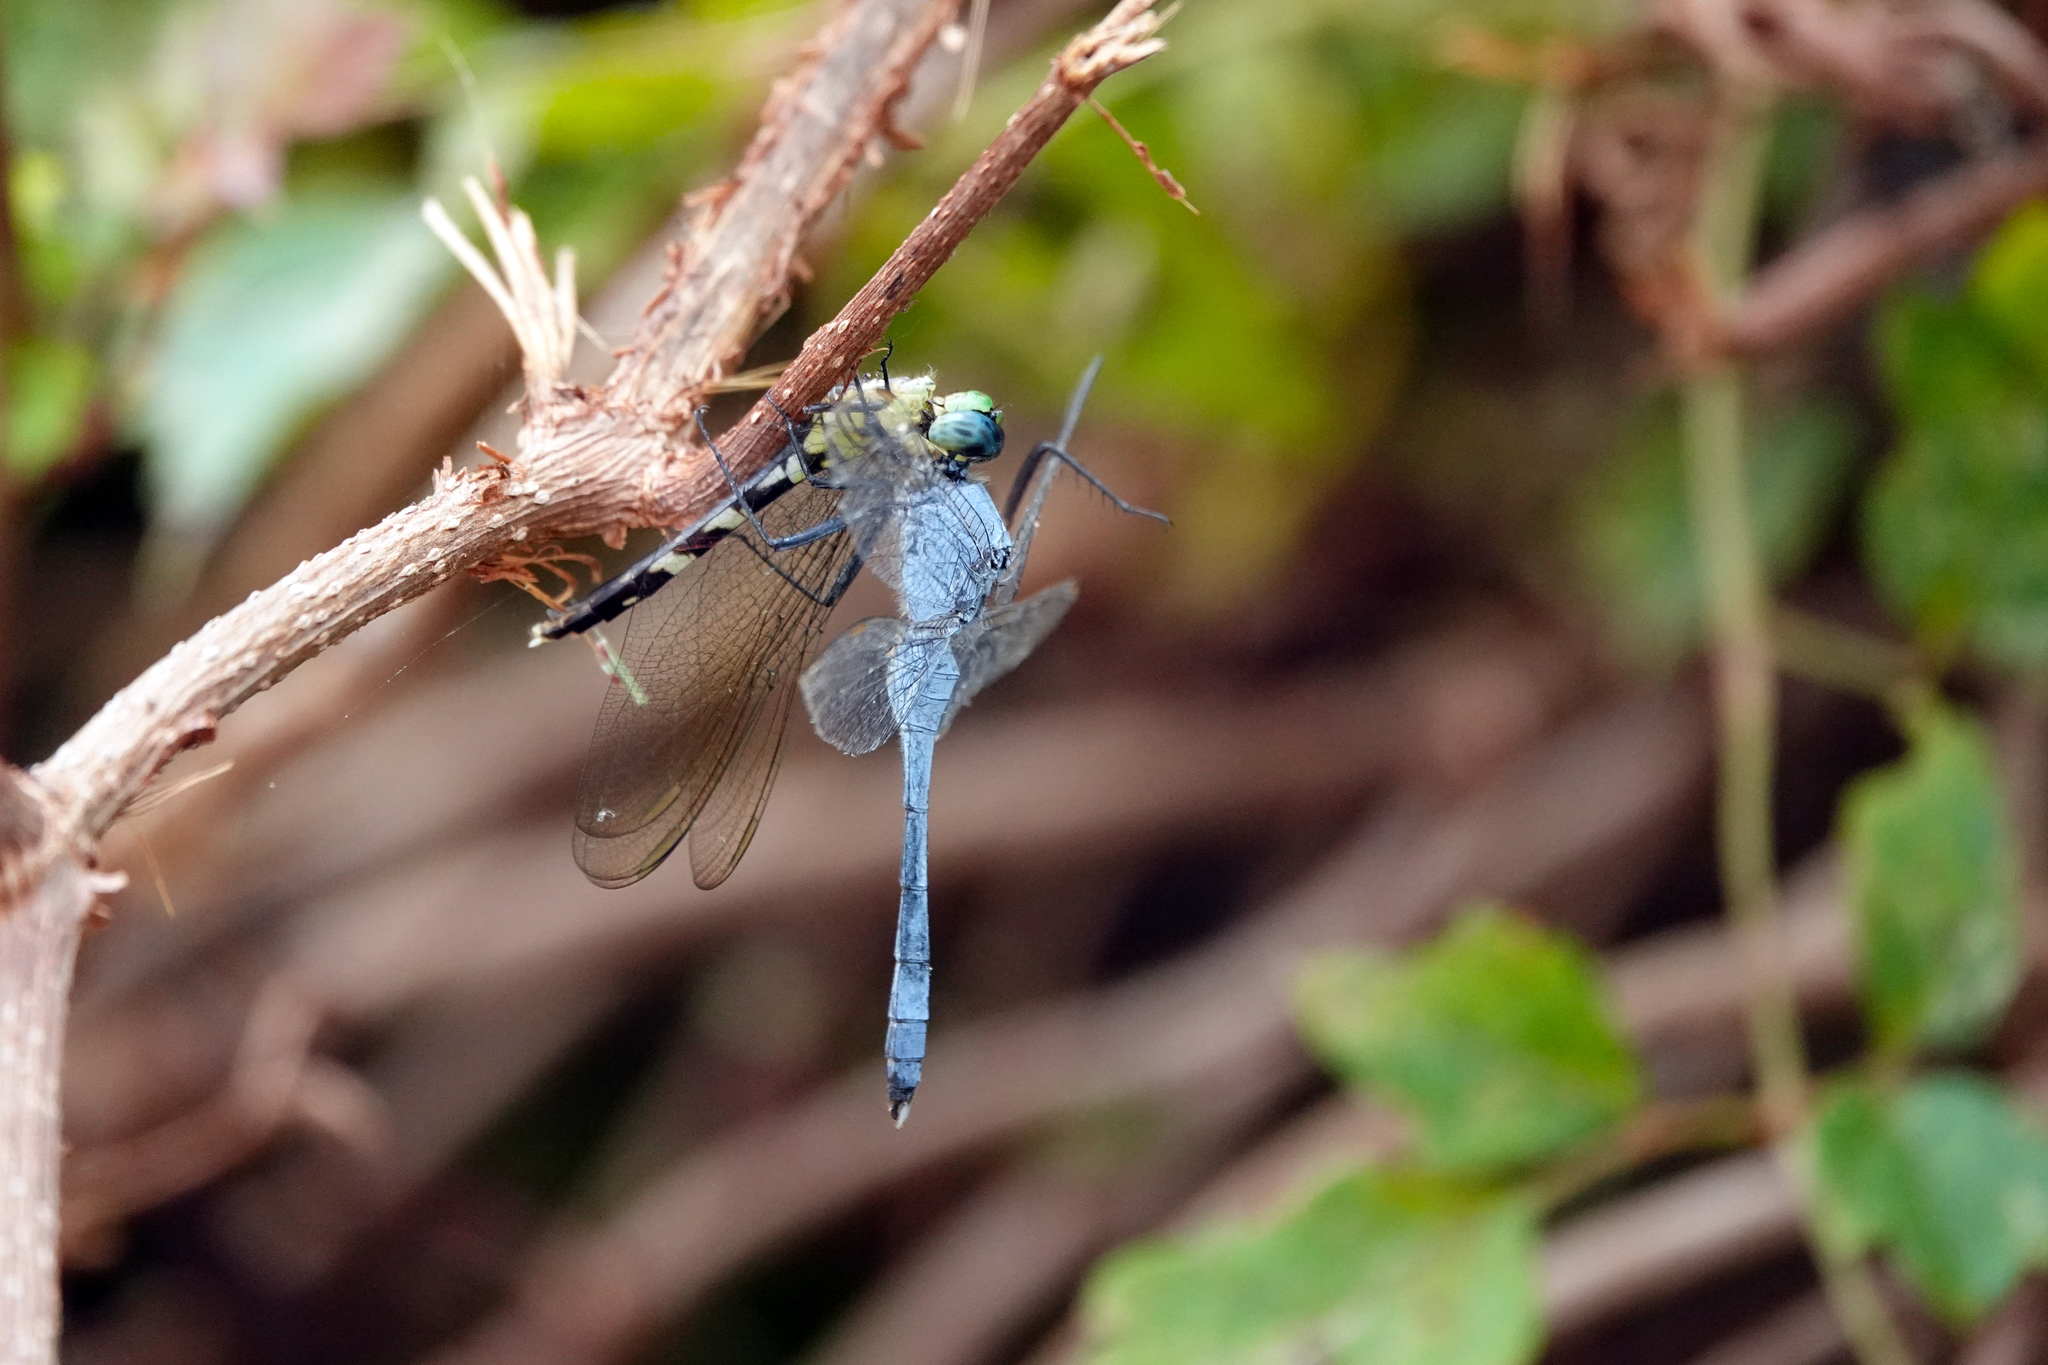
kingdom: Animalia
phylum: Arthropoda
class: Insecta
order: Odonata
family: Libellulidae
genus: Erythemis
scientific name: Erythemis simplicicollis
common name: Eastern pondhawk
